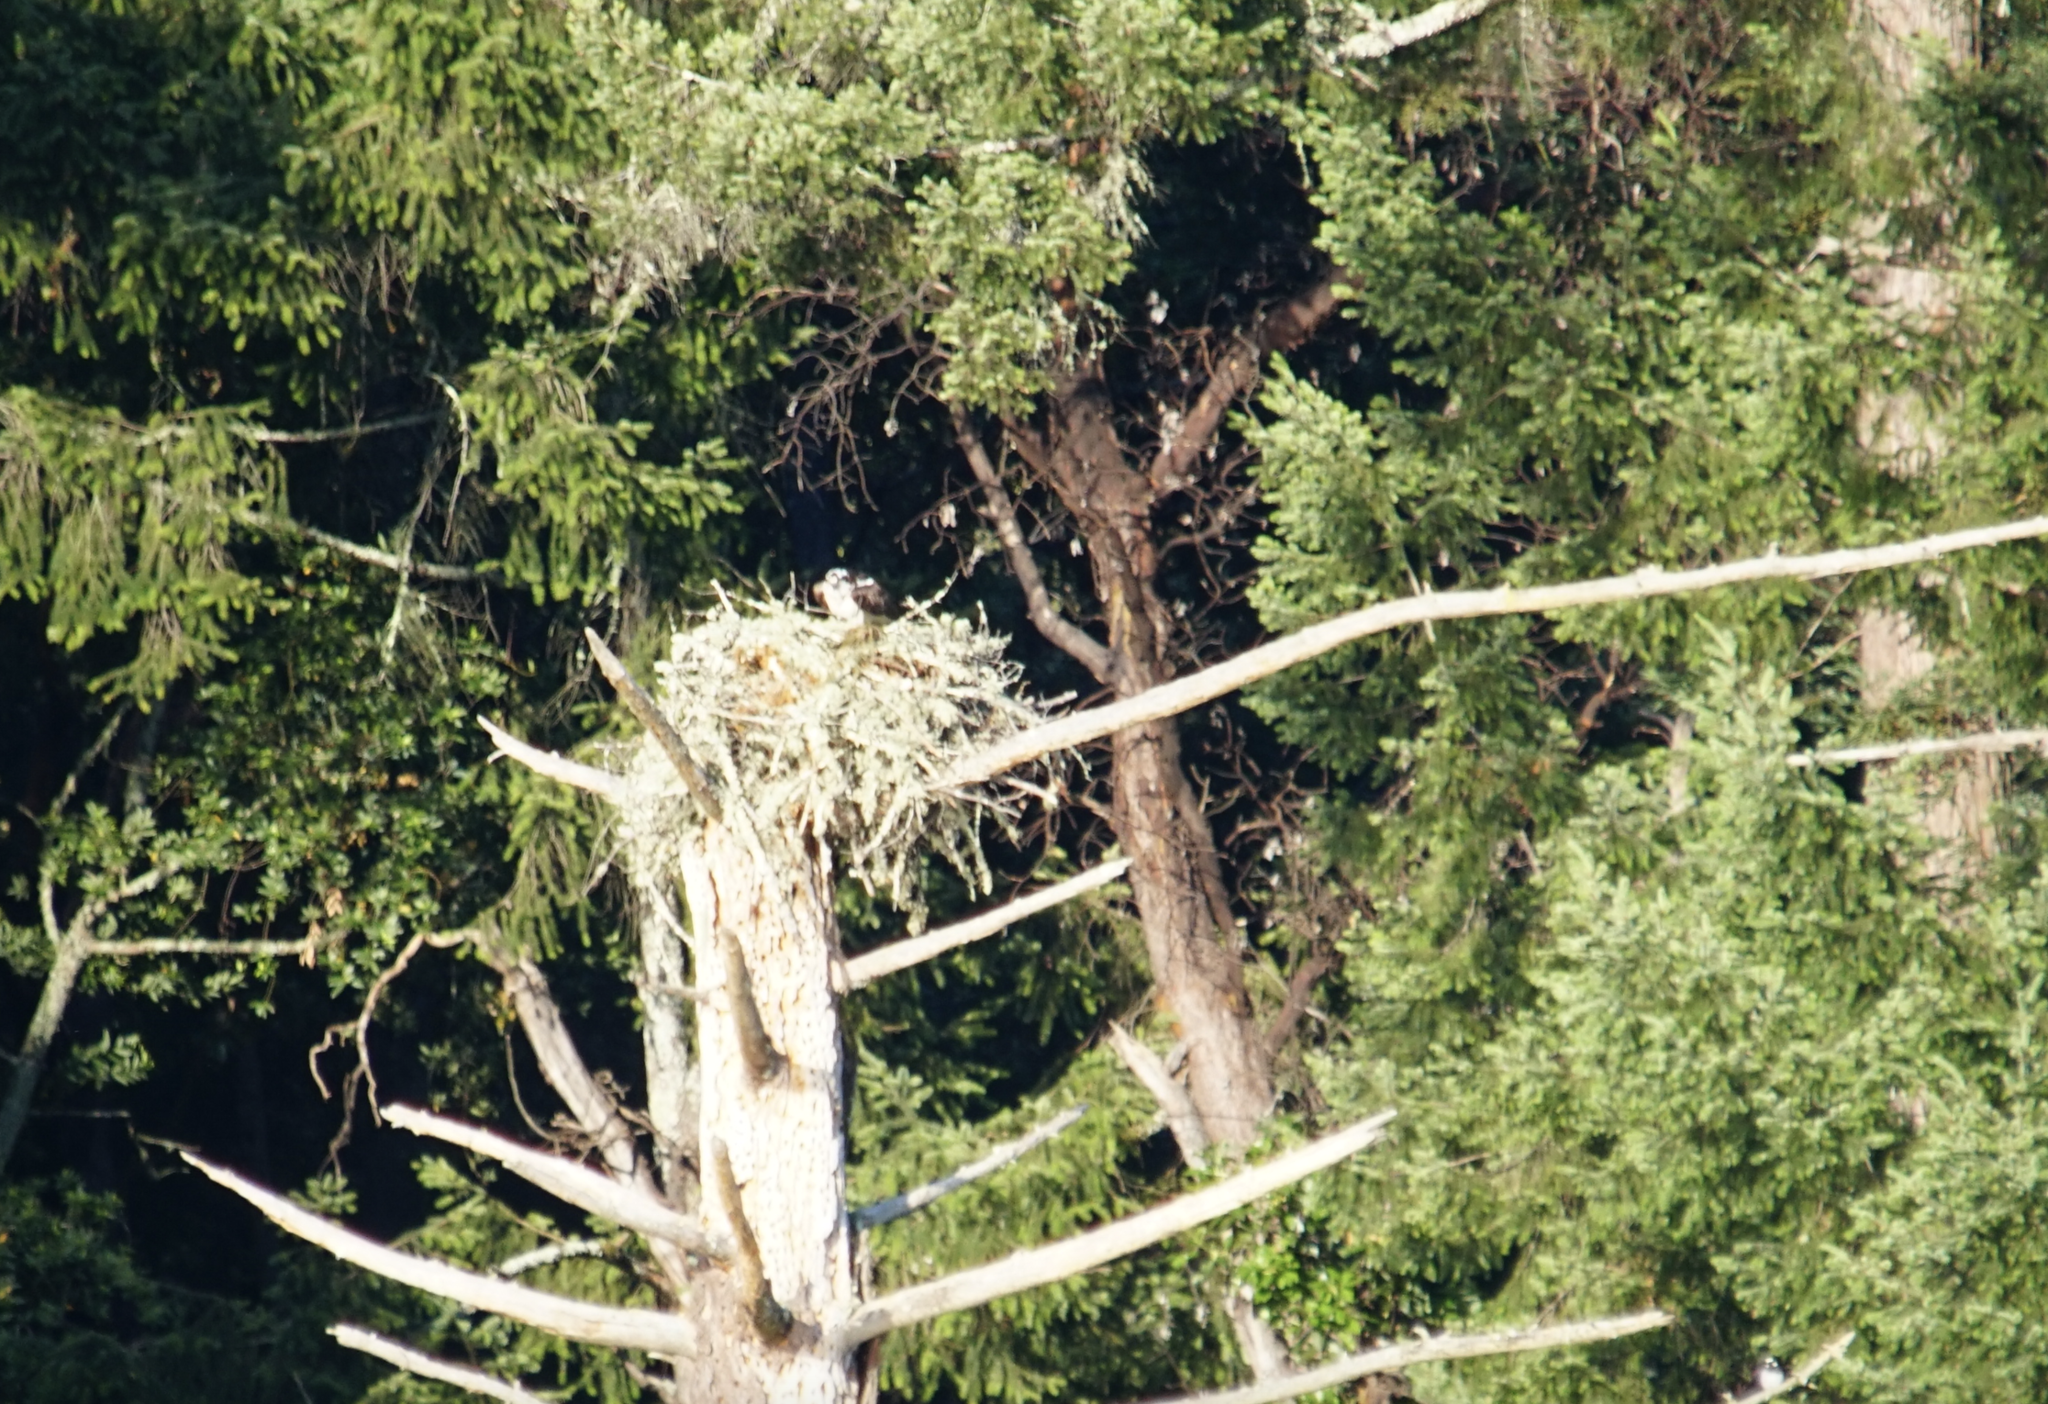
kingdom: Animalia
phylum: Chordata
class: Aves
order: Accipitriformes
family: Pandionidae
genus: Pandion
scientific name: Pandion haliaetus
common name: Osprey
